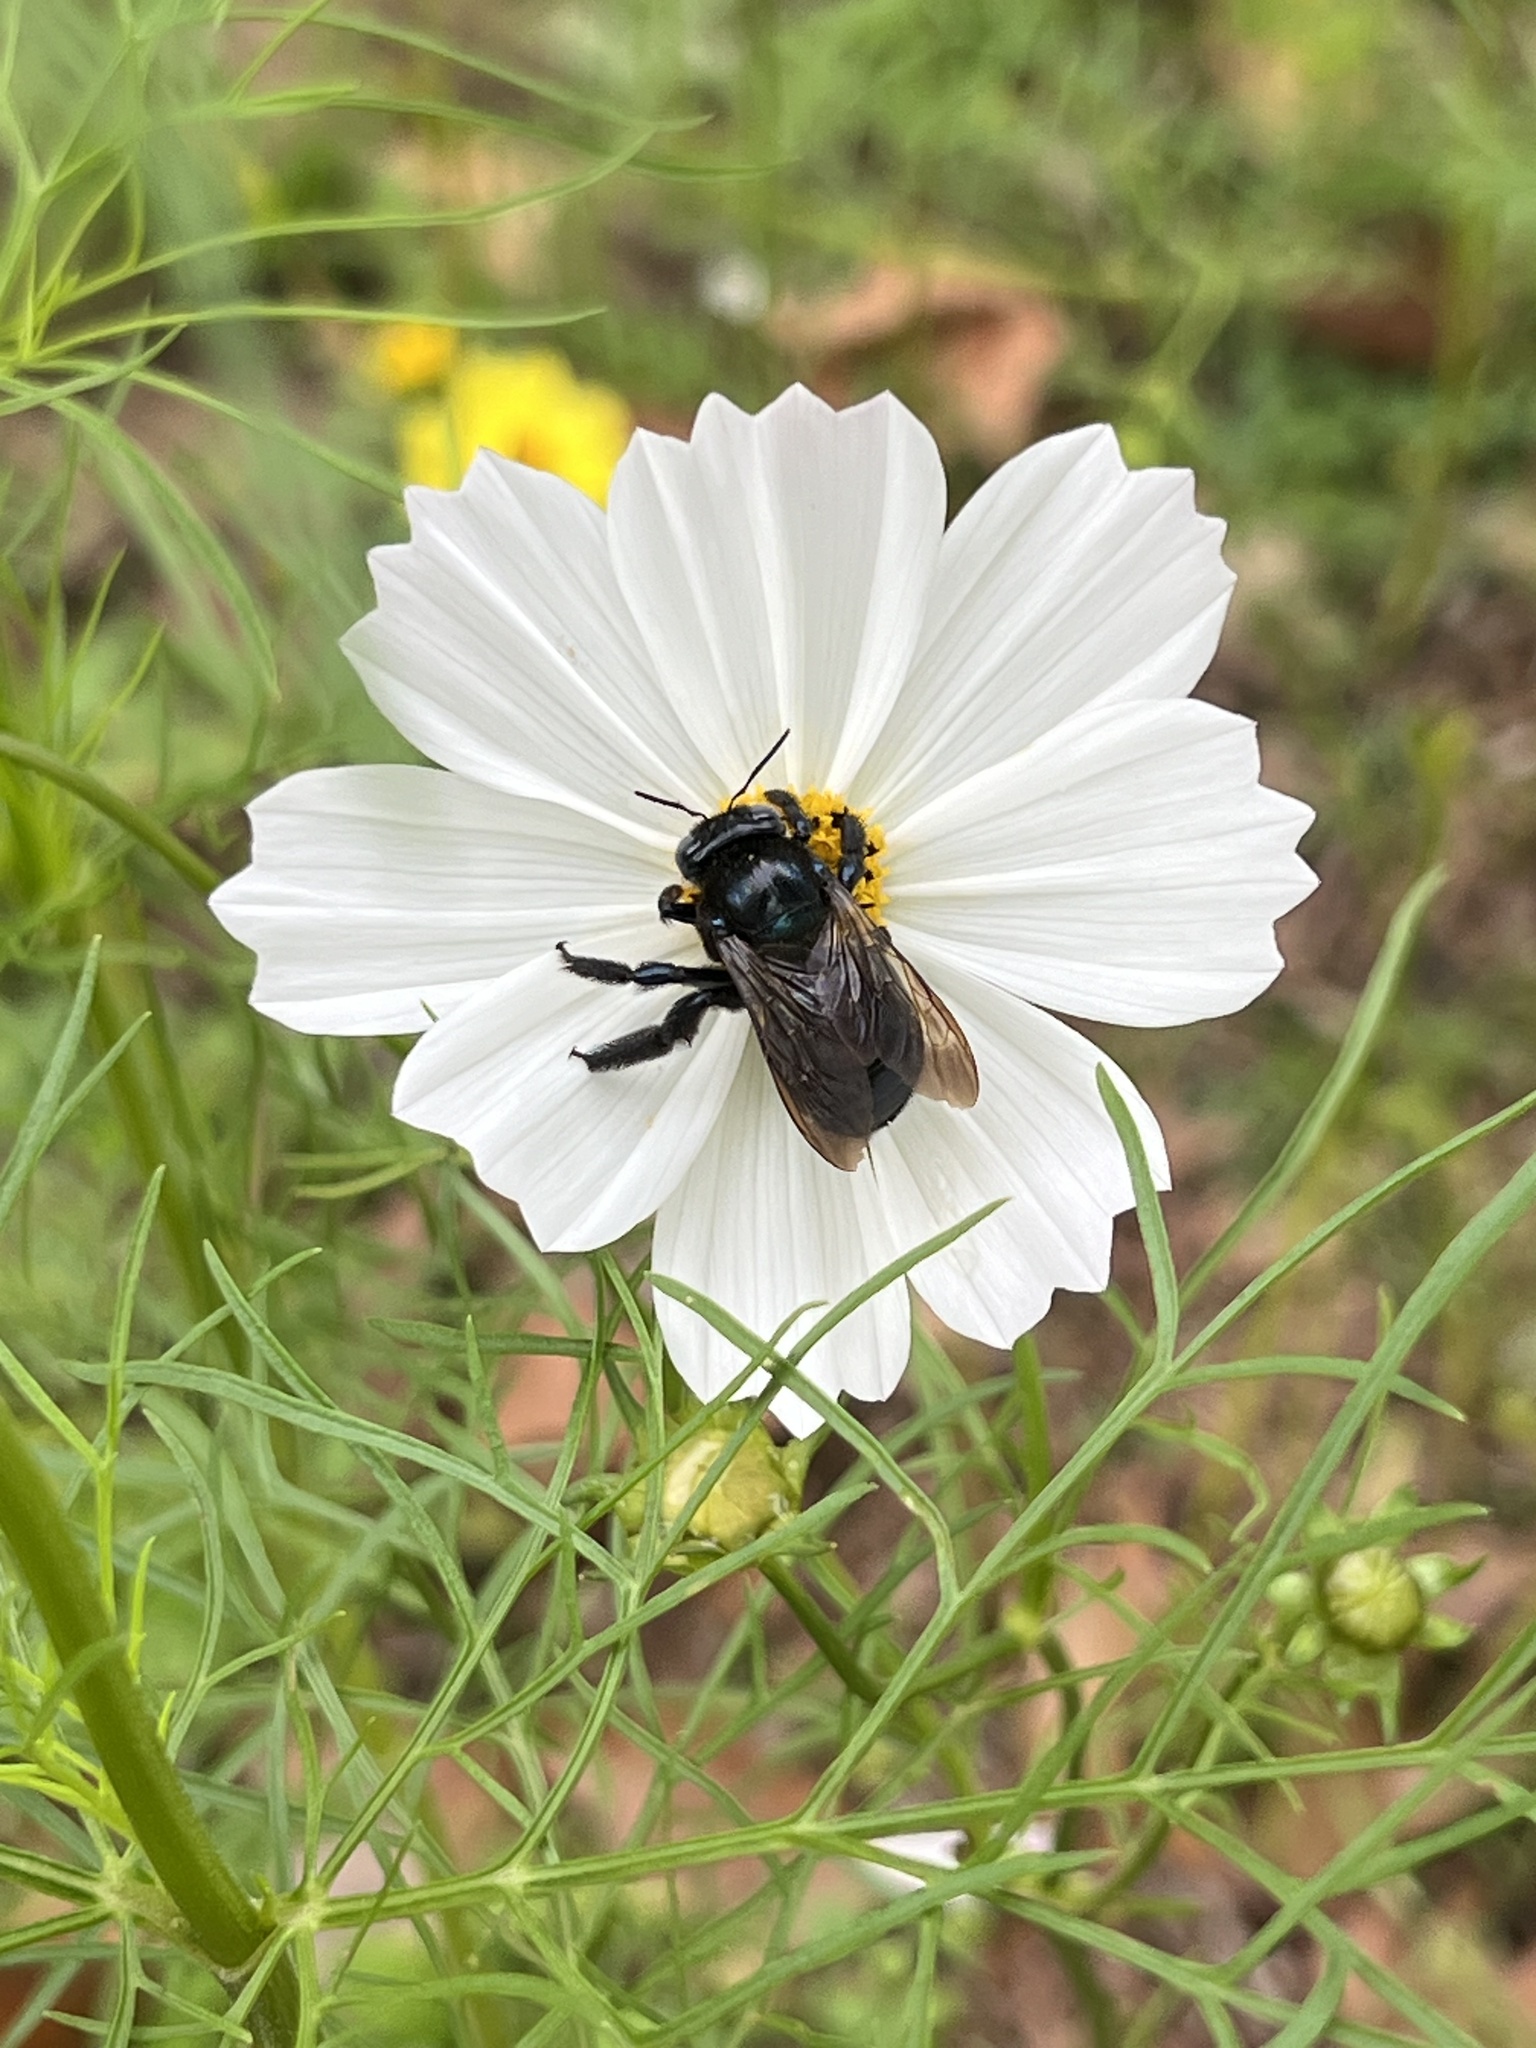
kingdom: Animalia
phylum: Arthropoda
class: Insecta
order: Hymenoptera
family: Apidae
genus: Xylocopa
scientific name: Xylocopa micans
